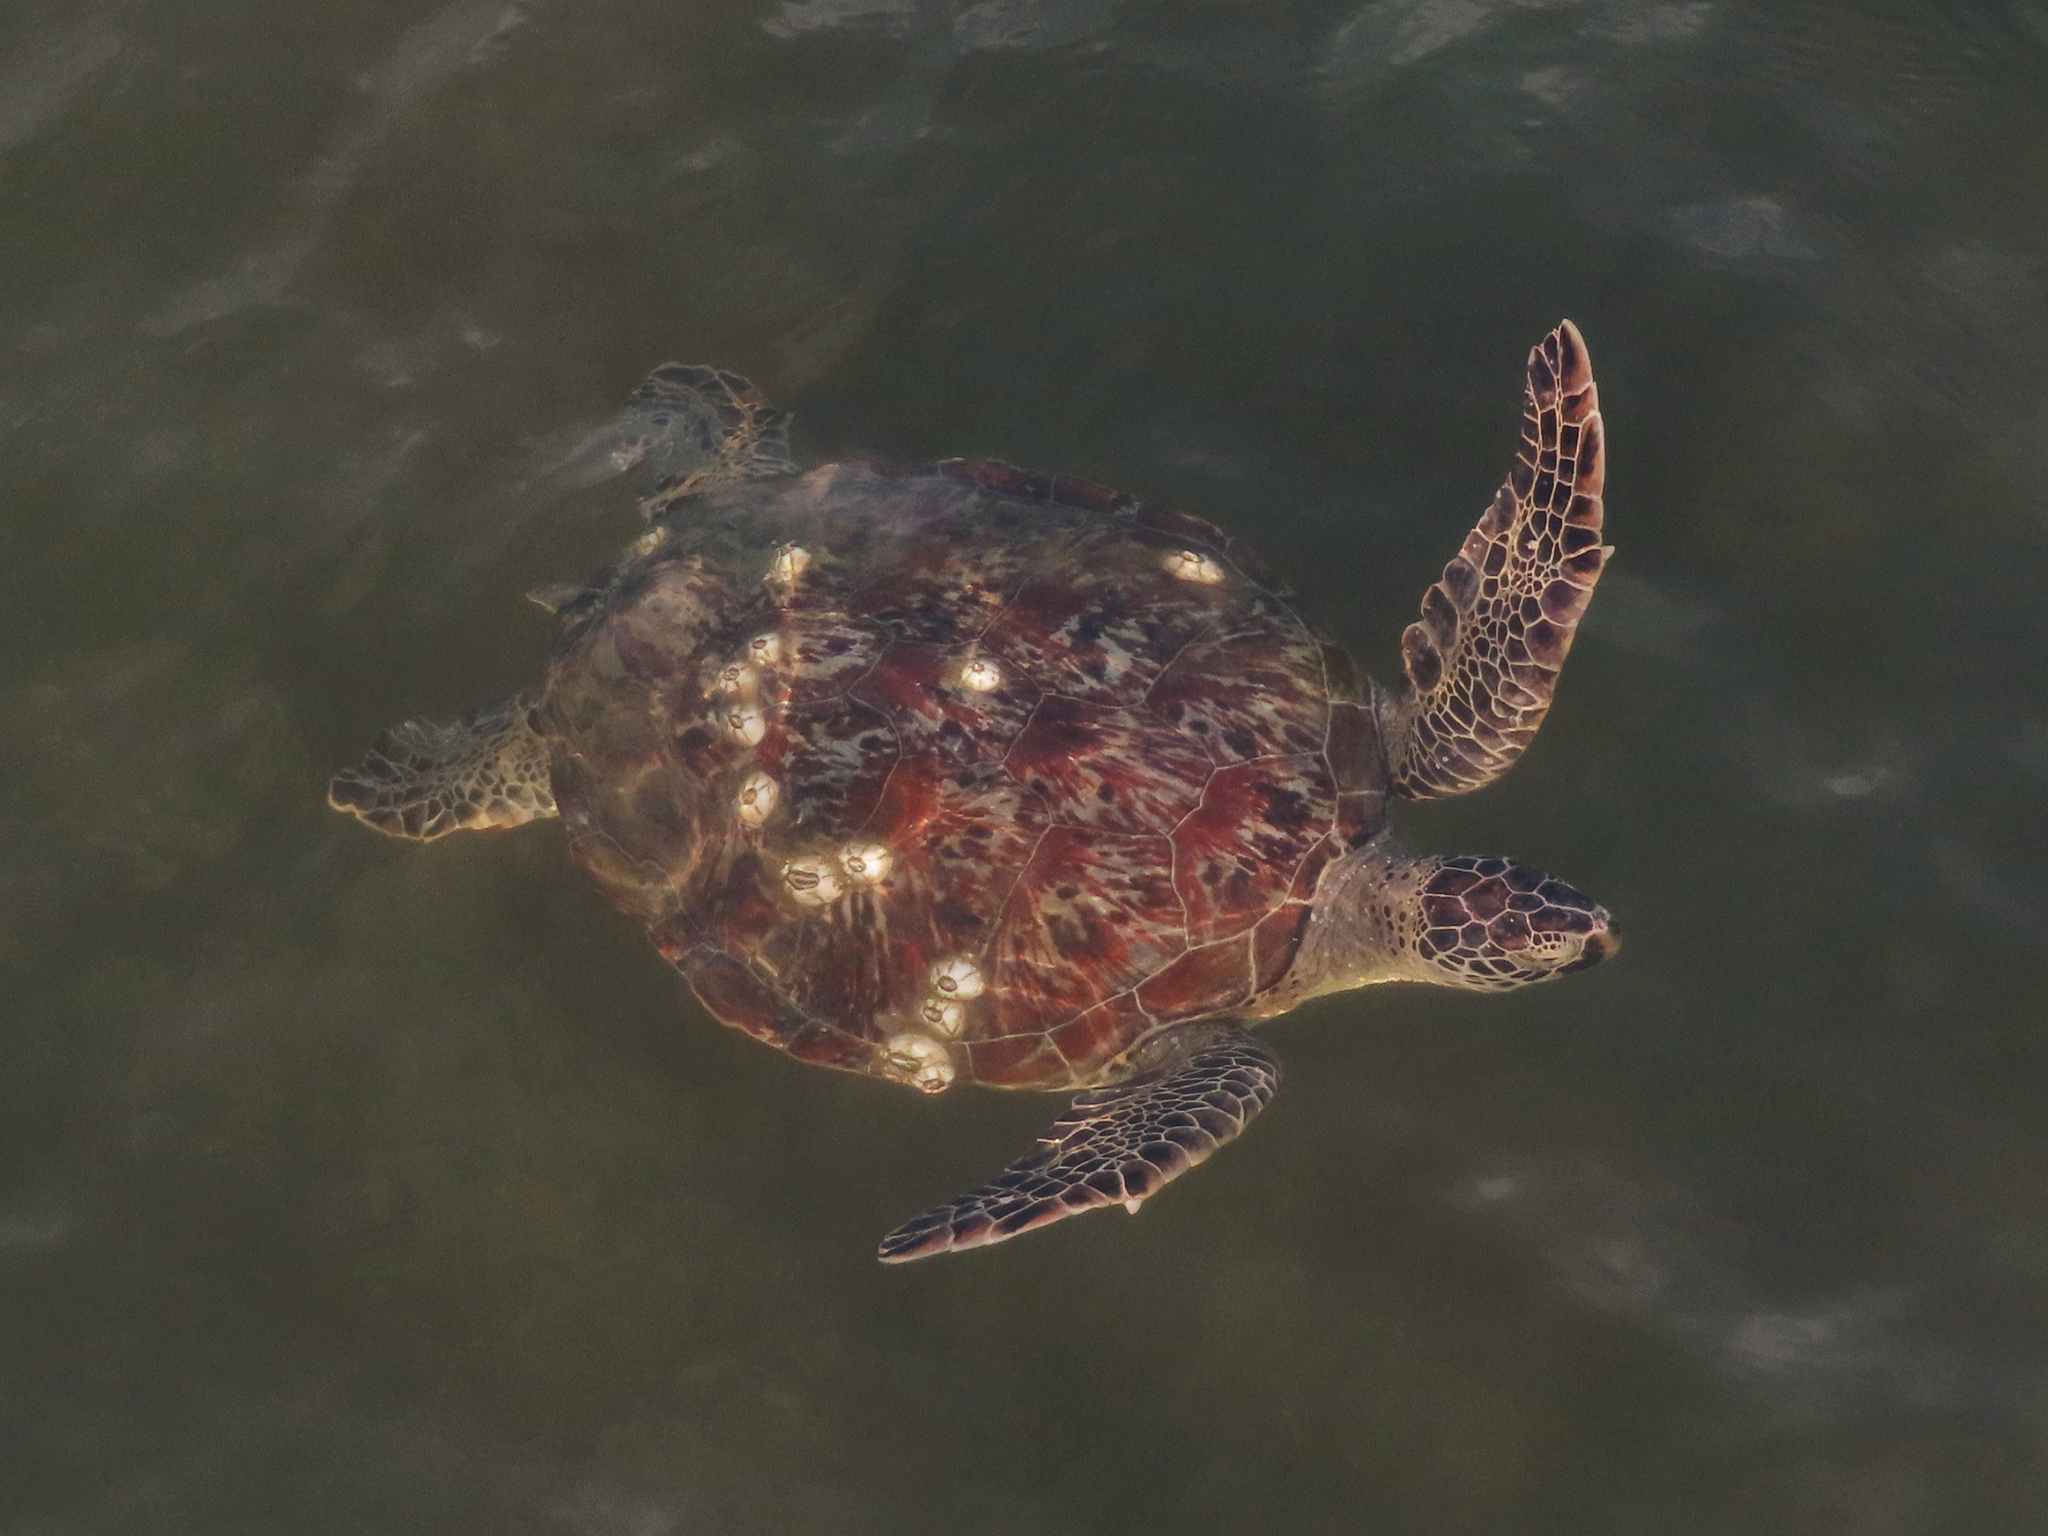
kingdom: Animalia
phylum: Chordata
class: Testudines
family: Cheloniidae
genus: Chelonia
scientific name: Chelonia mydas
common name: Green turtle
